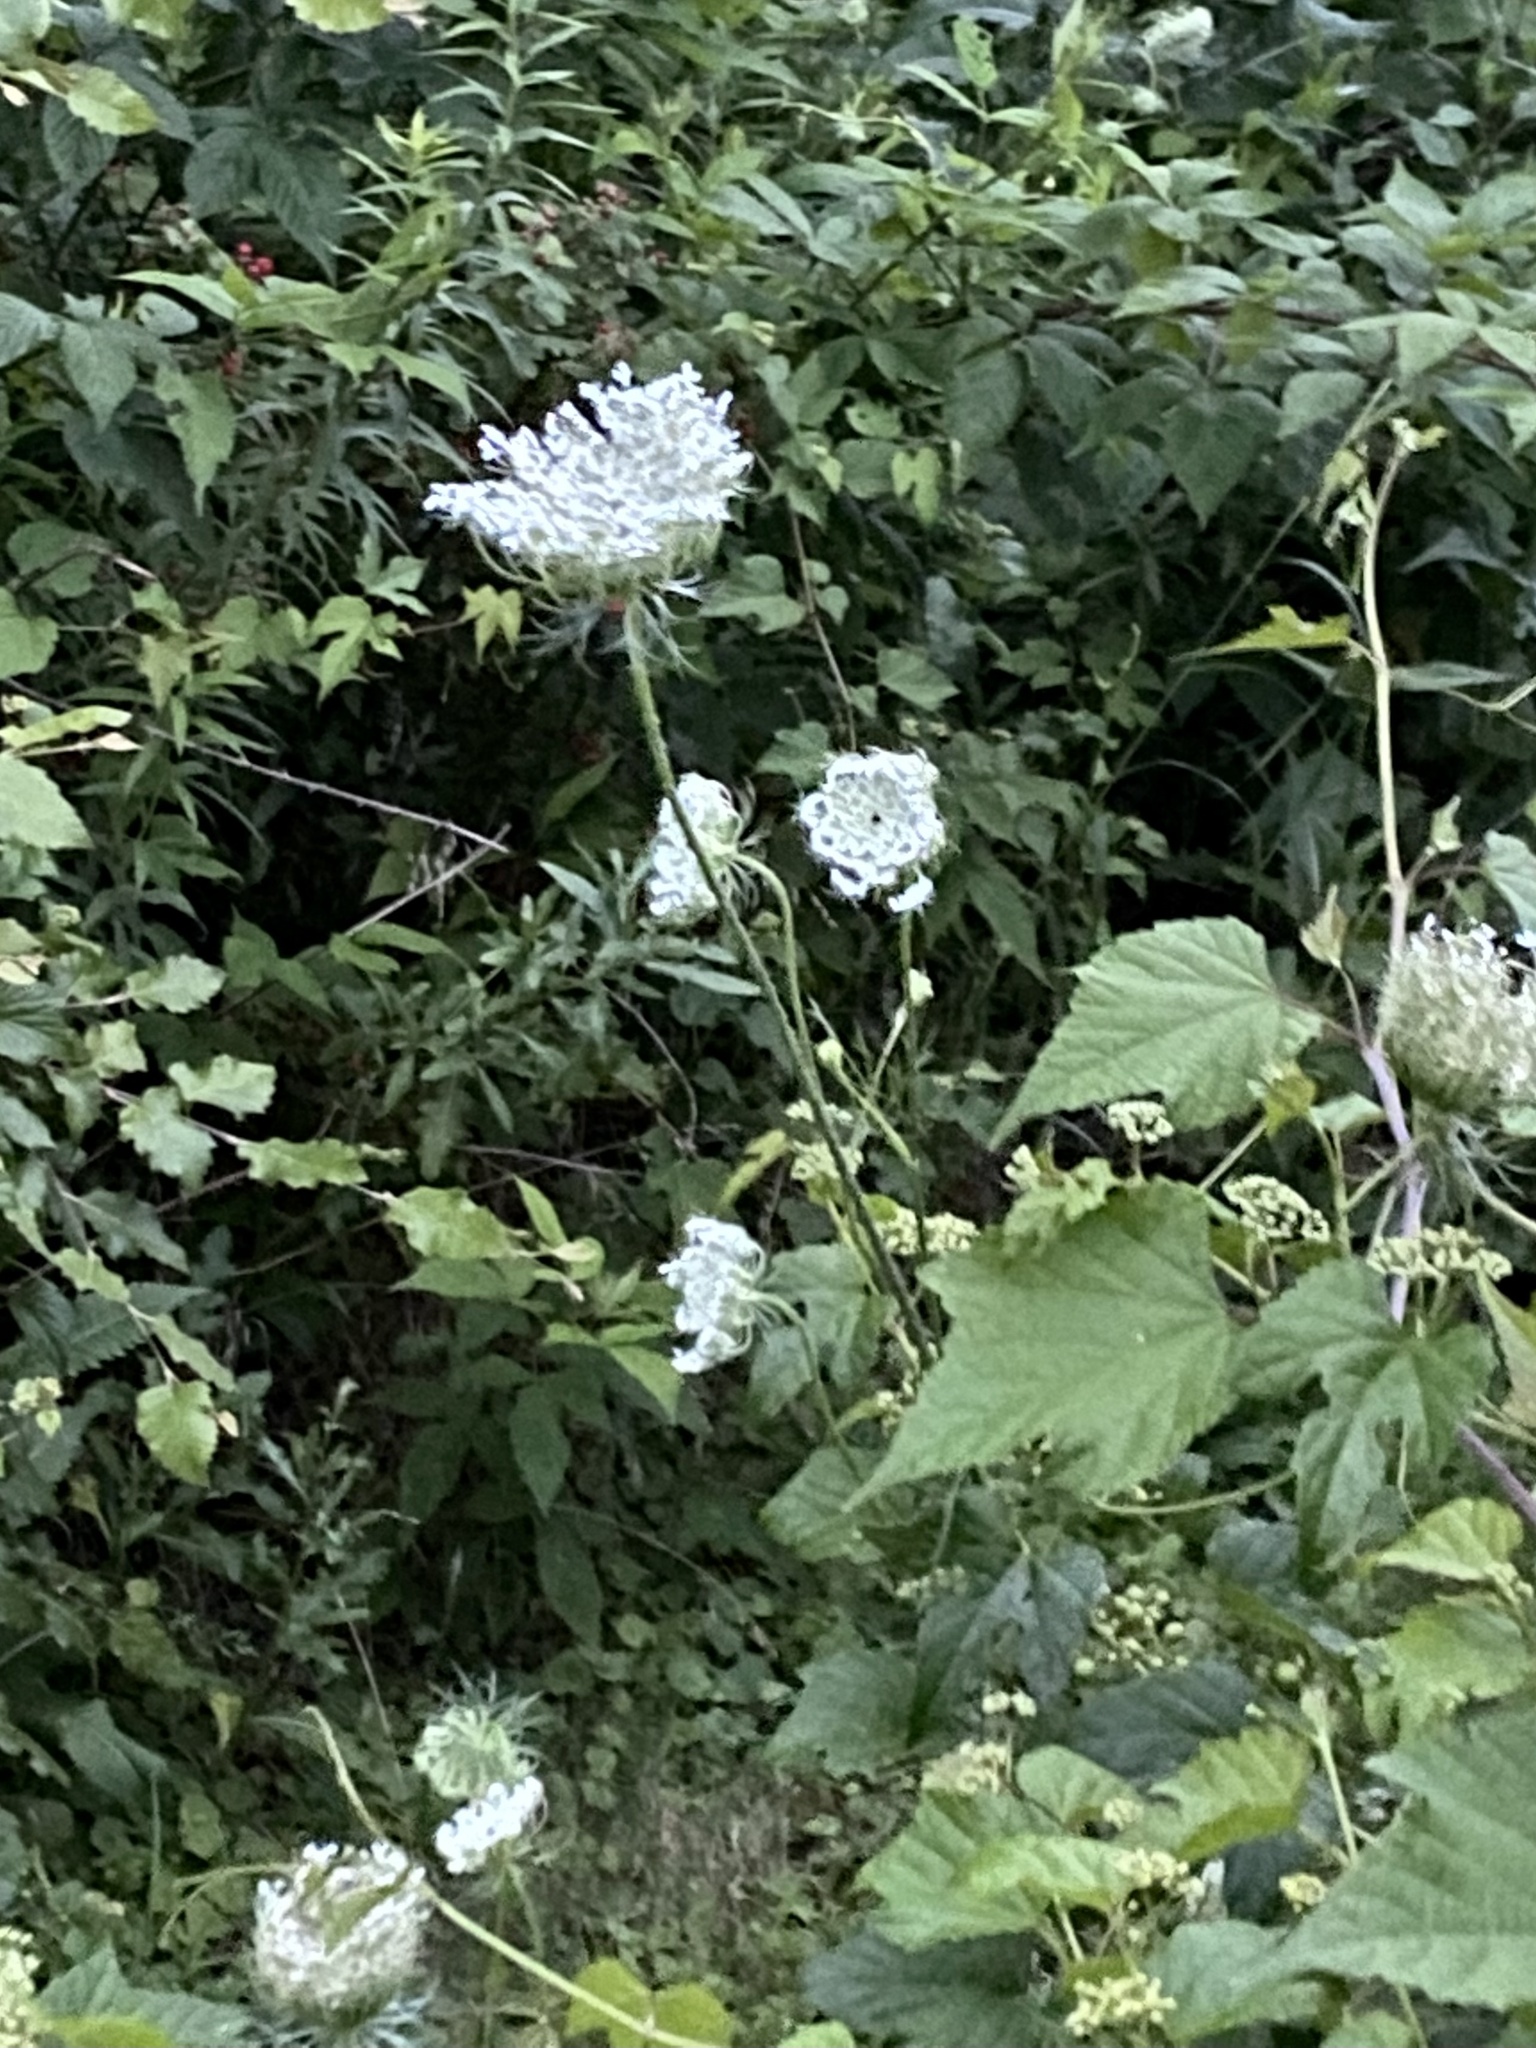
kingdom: Plantae
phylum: Tracheophyta
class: Magnoliopsida
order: Apiales
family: Apiaceae
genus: Daucus
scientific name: Daucus carota
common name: Wild carrot
